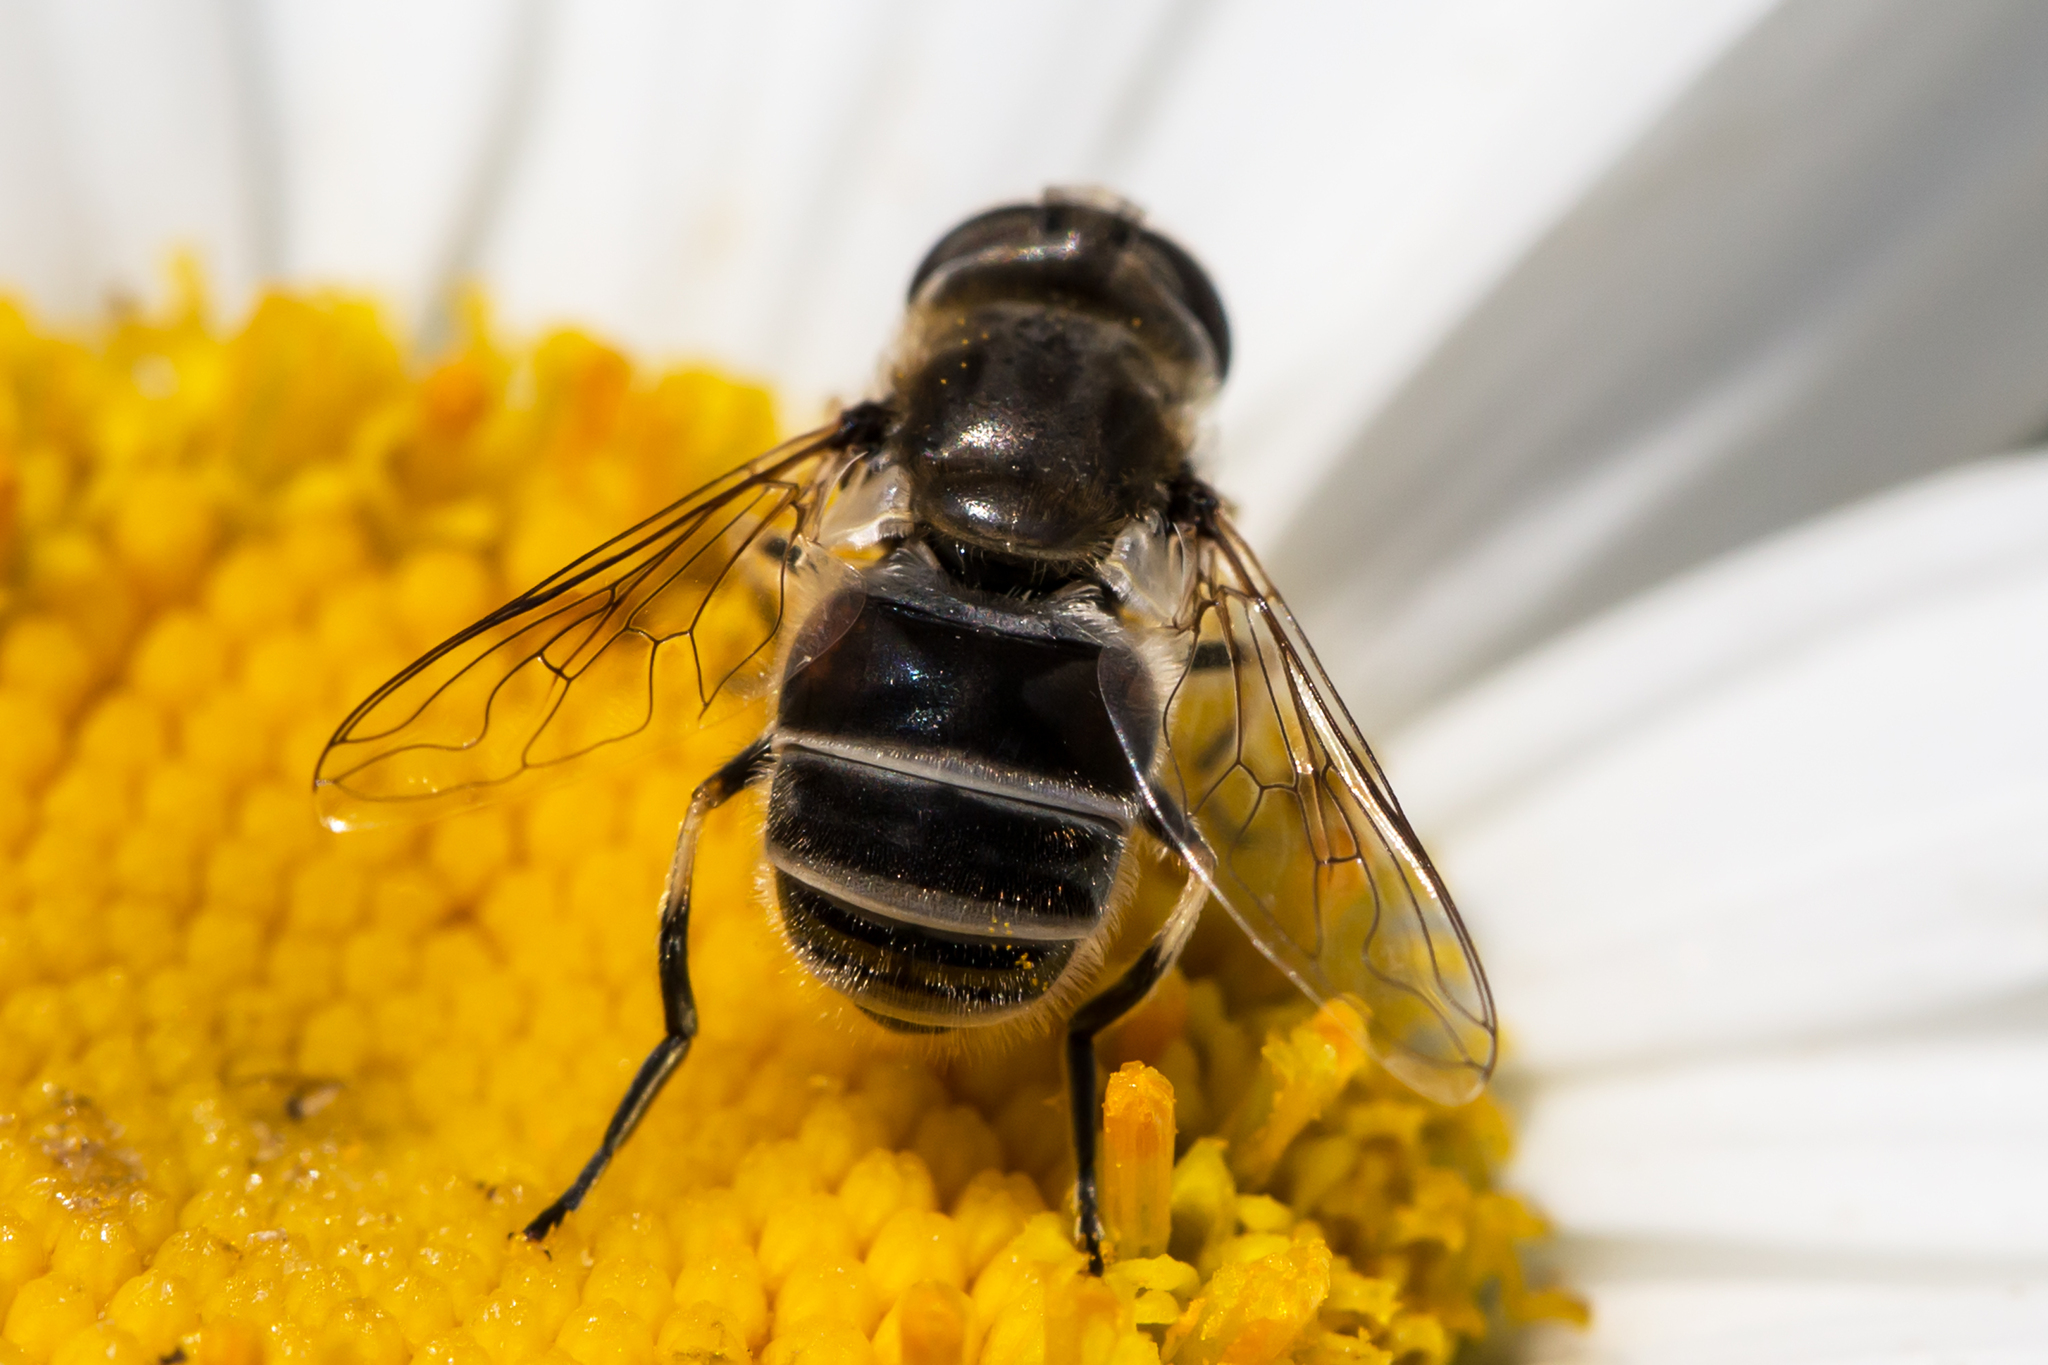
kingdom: Animalia
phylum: Arthropoda
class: Insecta
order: Diptera
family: Syrphidae
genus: Eristalis
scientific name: Eristalis arbustorum
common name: Hover fly
